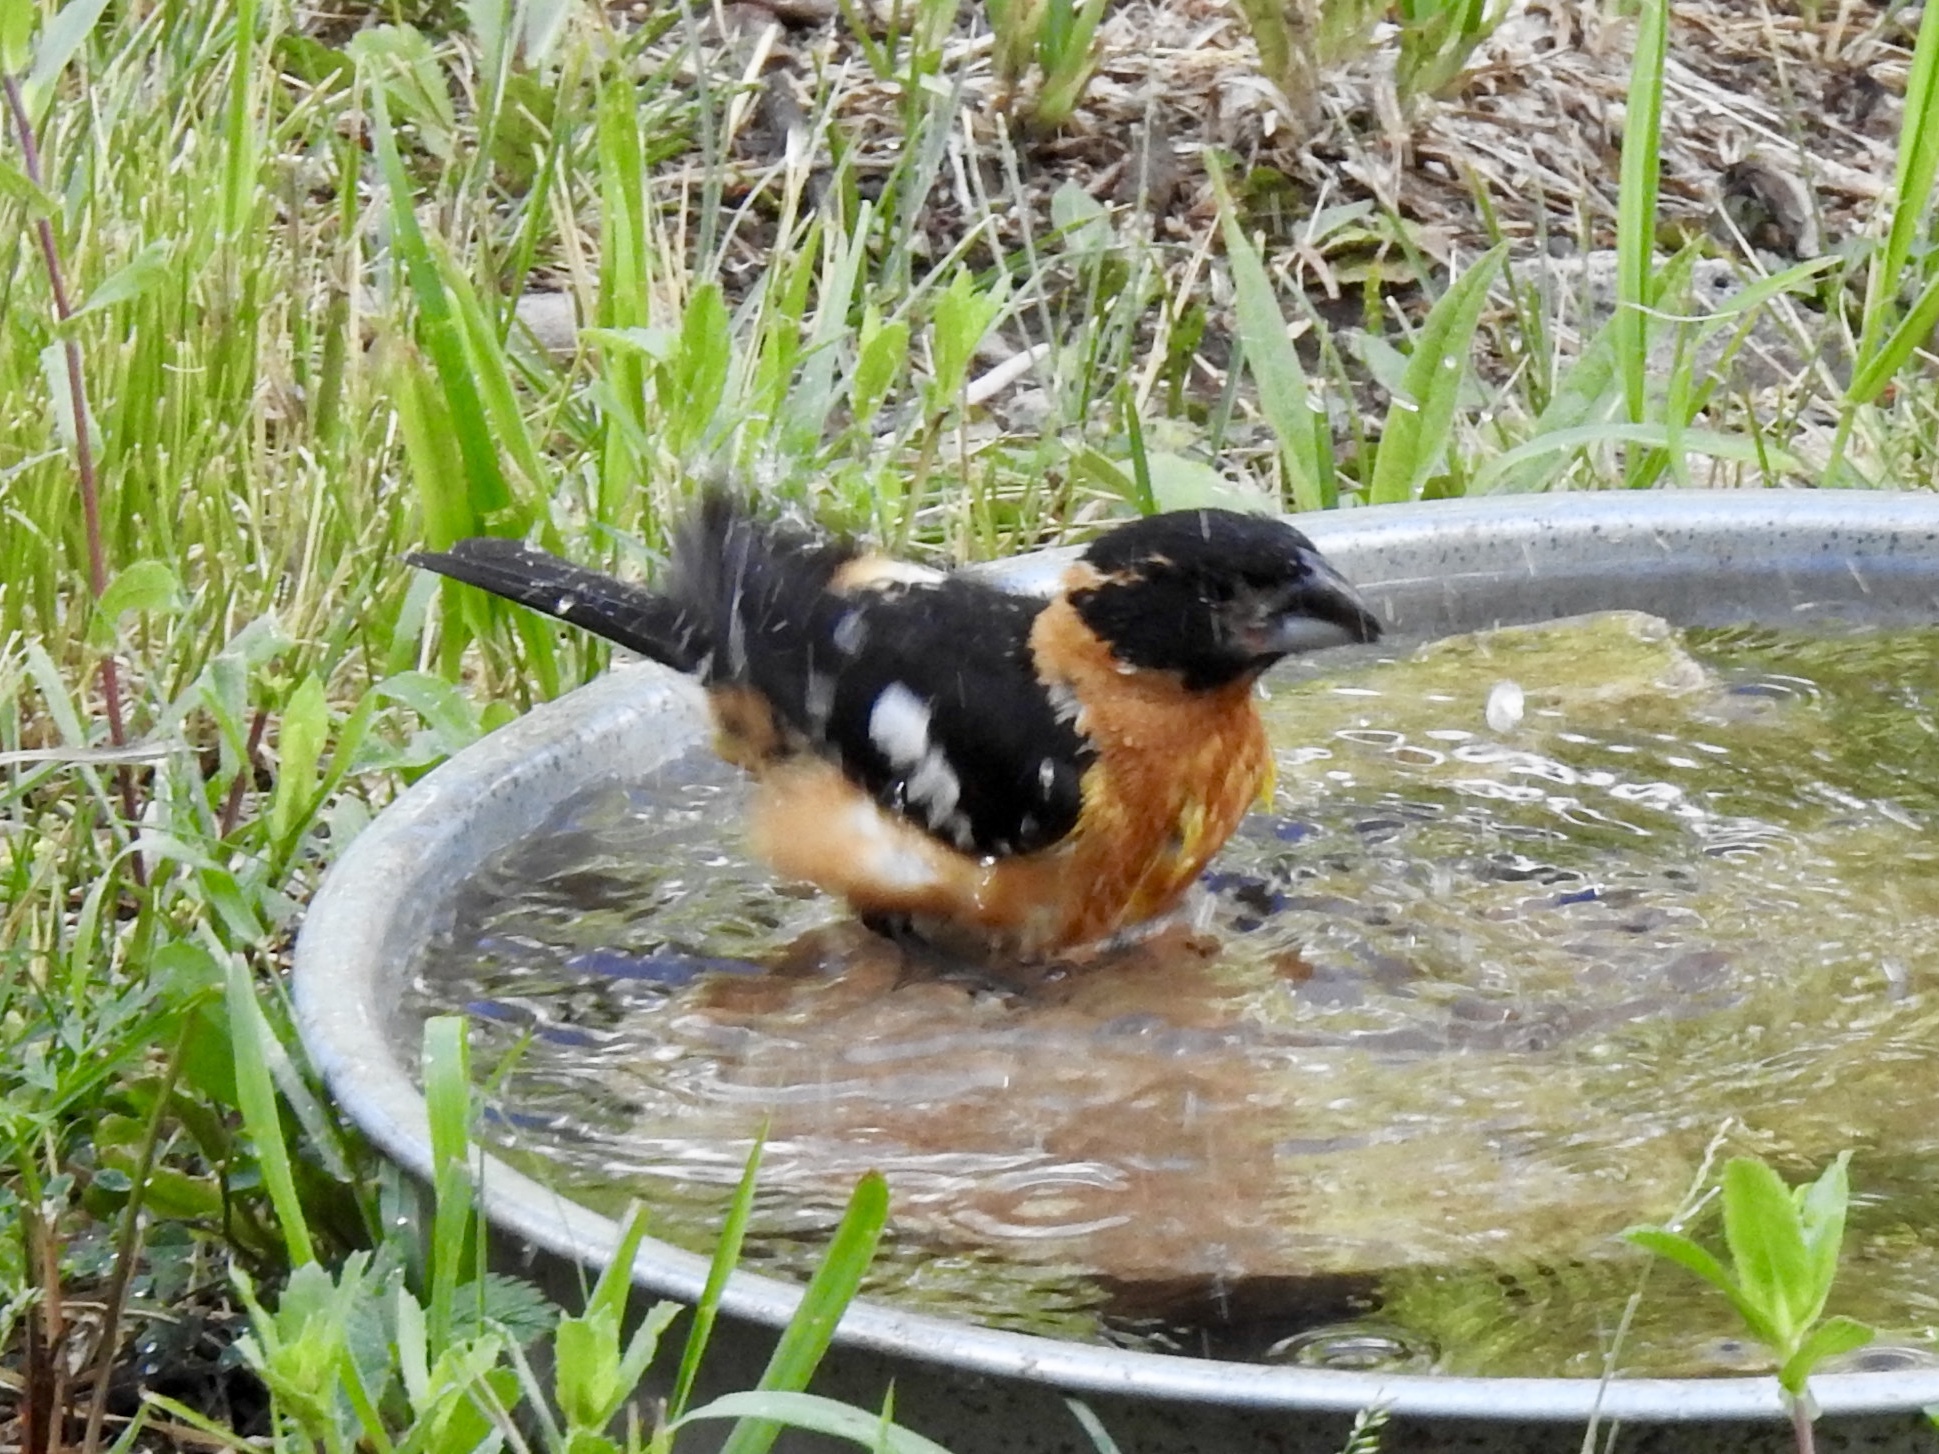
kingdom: Animalia
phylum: Chordata
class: Aves
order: Passeriformes
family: Cardinalidae
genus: Pheucticus
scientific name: Pheucticus melanocephalus
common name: Black-headed grosbeak
